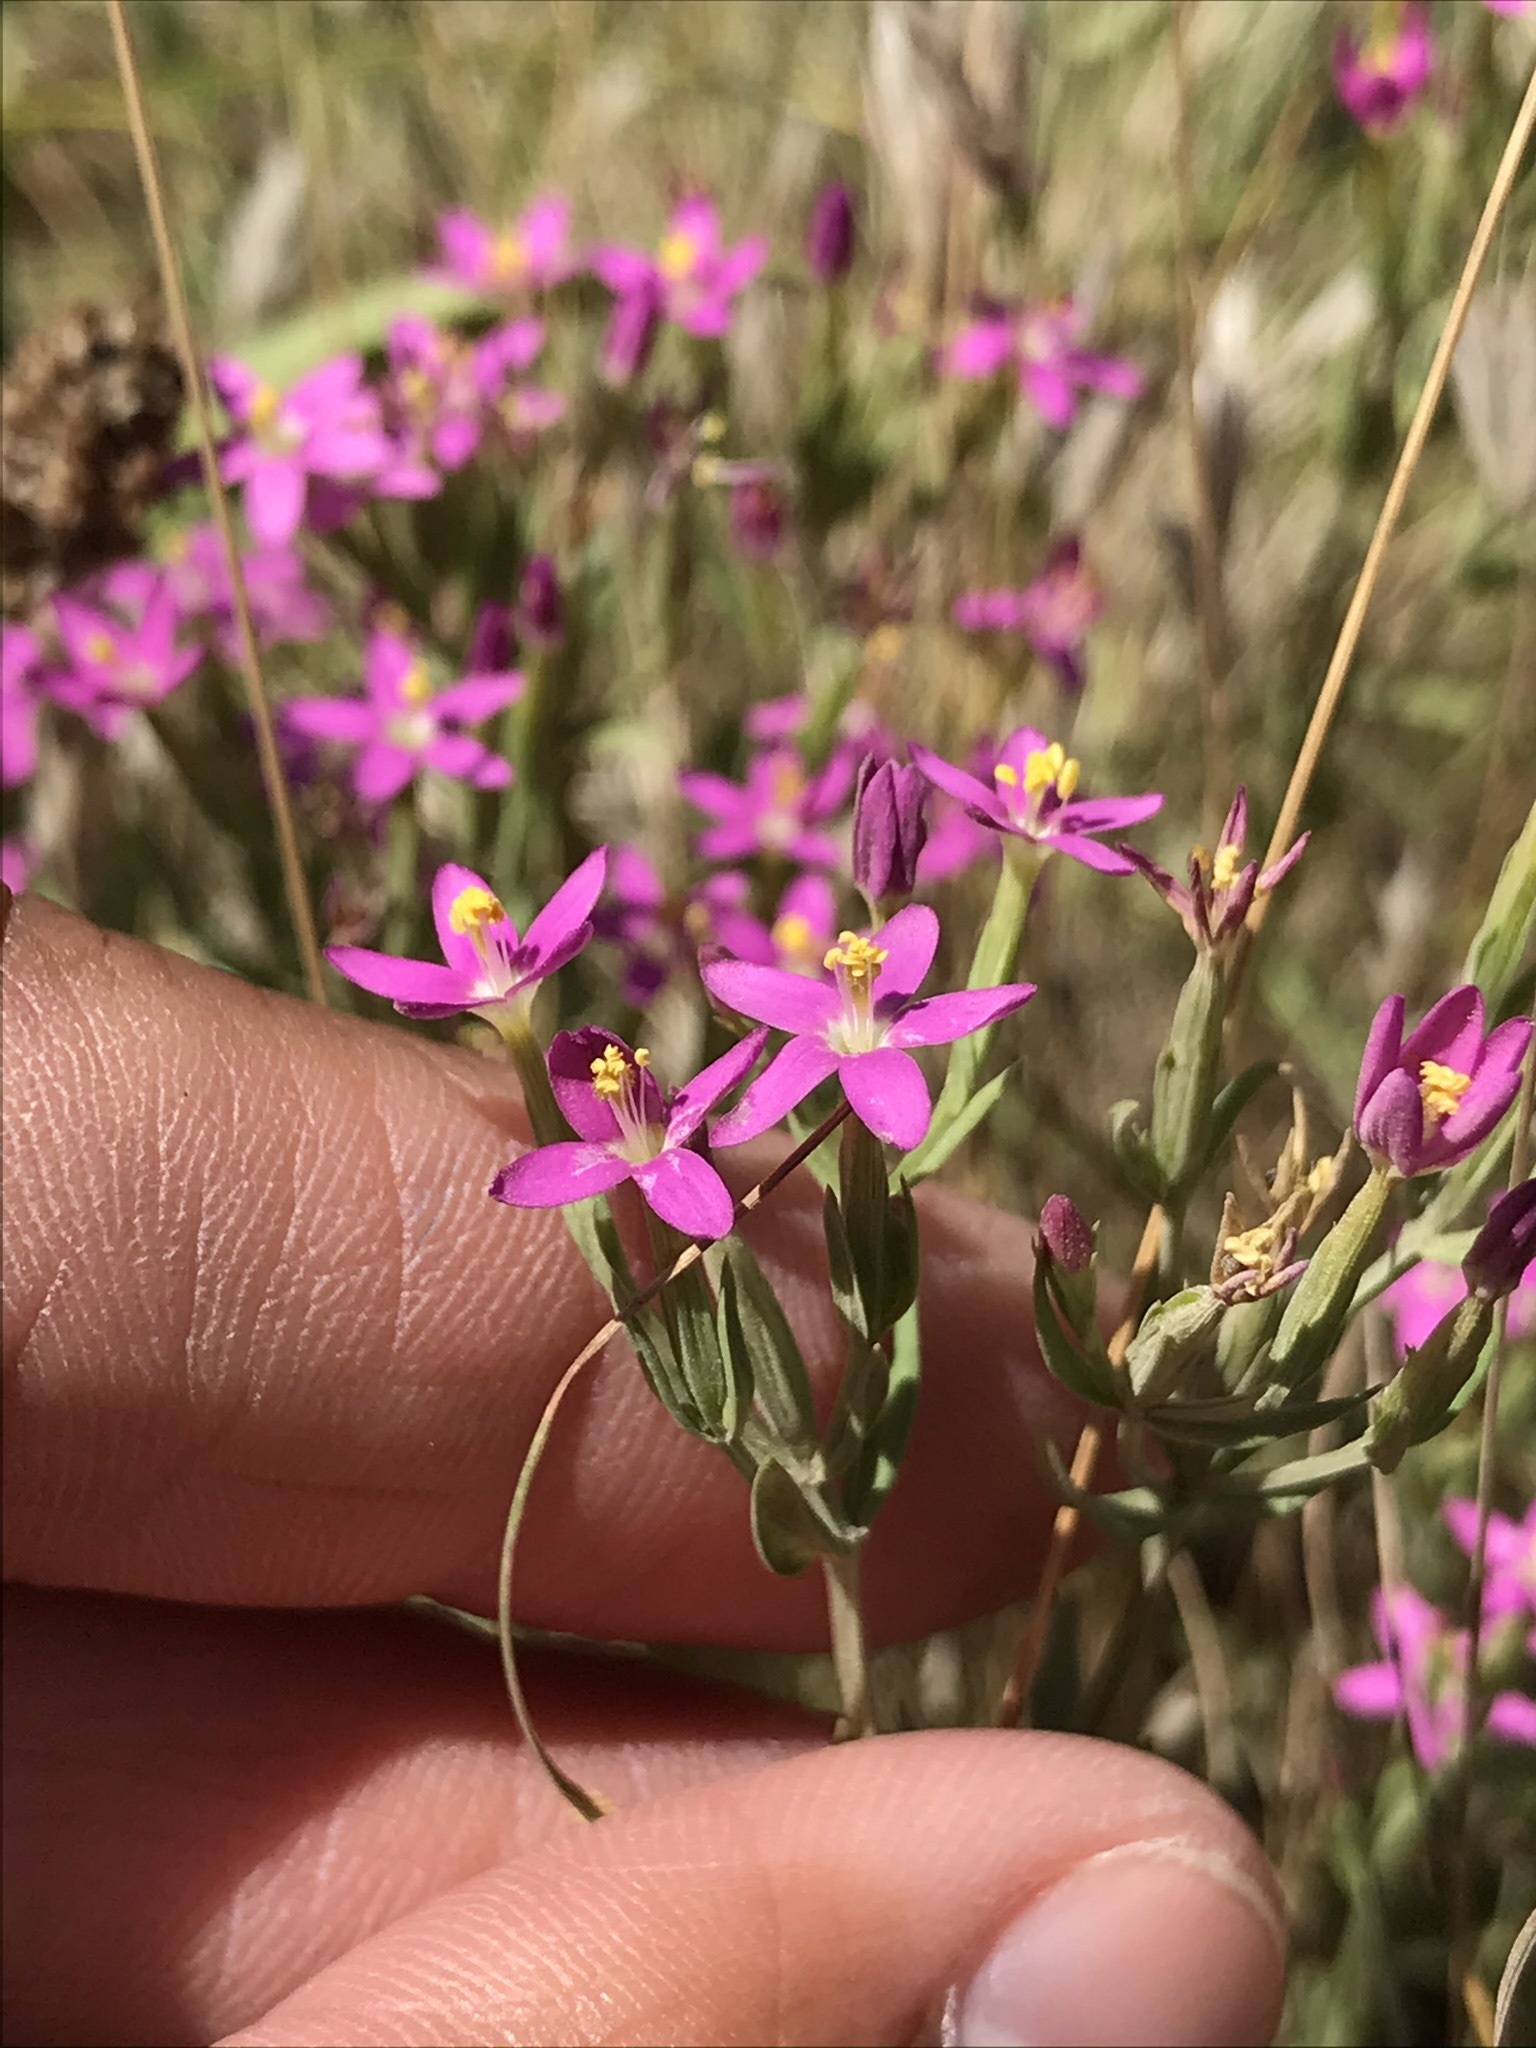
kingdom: Plantae
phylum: Tracheophyta
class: Magnoliopsida
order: Gentianales
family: Gentianaceae
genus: Centaurium
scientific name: Centaurium tenuiflorum
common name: Slender centaury
